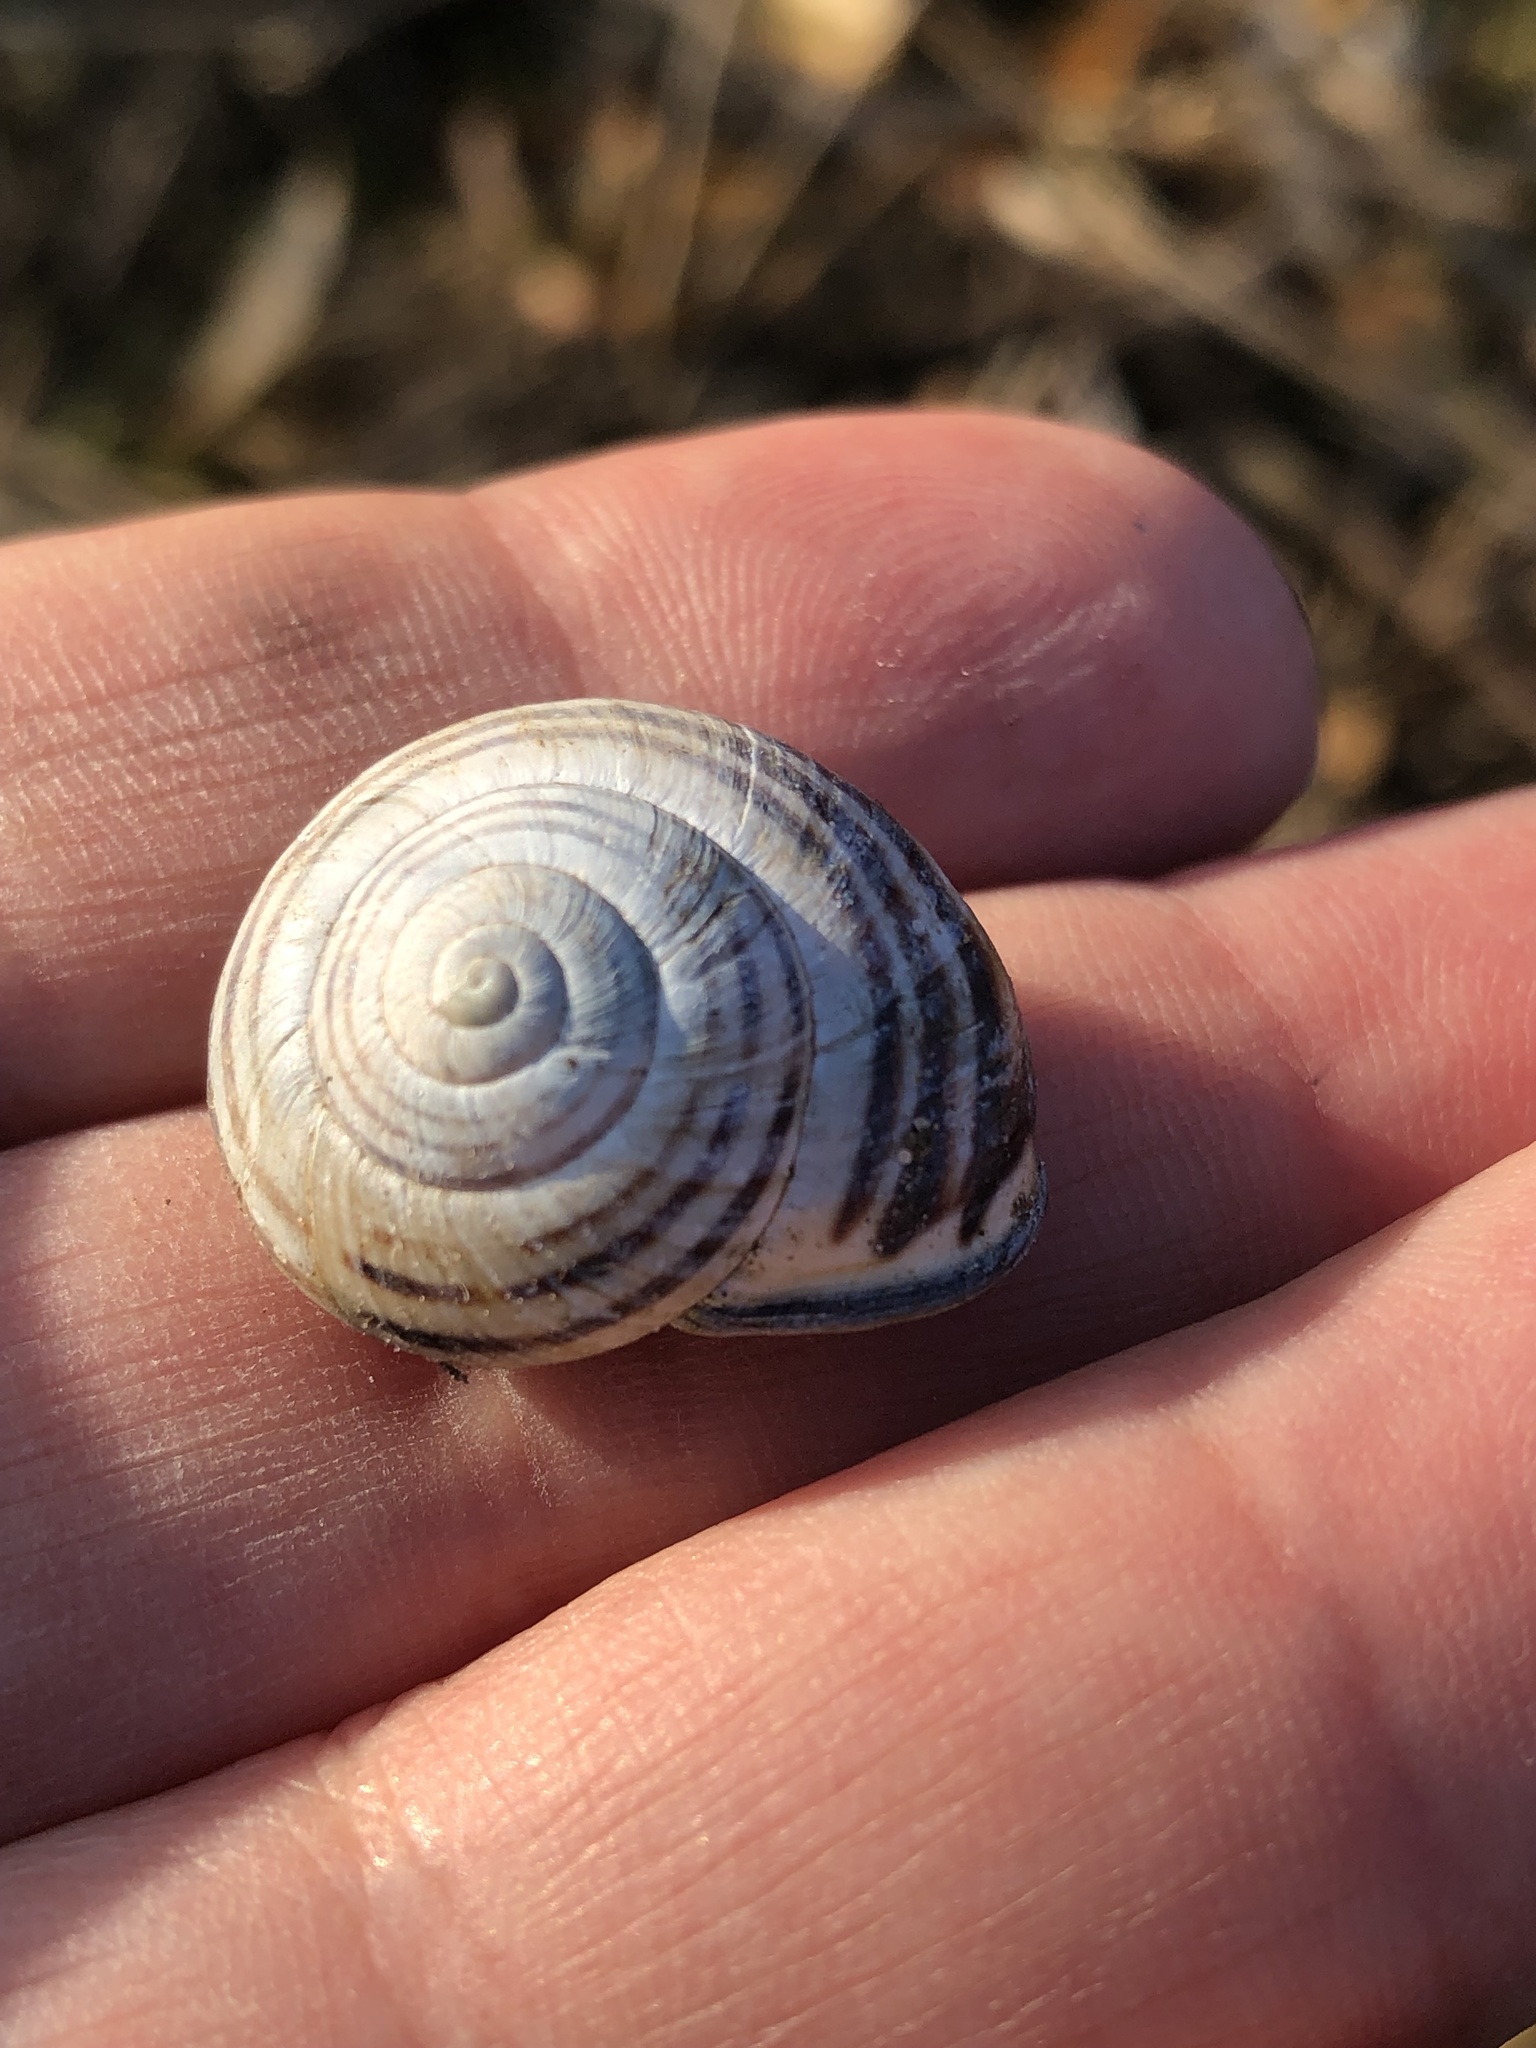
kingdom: Animalia
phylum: Mollusca
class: Gastropoda
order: Stylommatophora
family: Helicidae
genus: Cepaea
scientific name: Cepaea nemoralis
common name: Grovesnail
